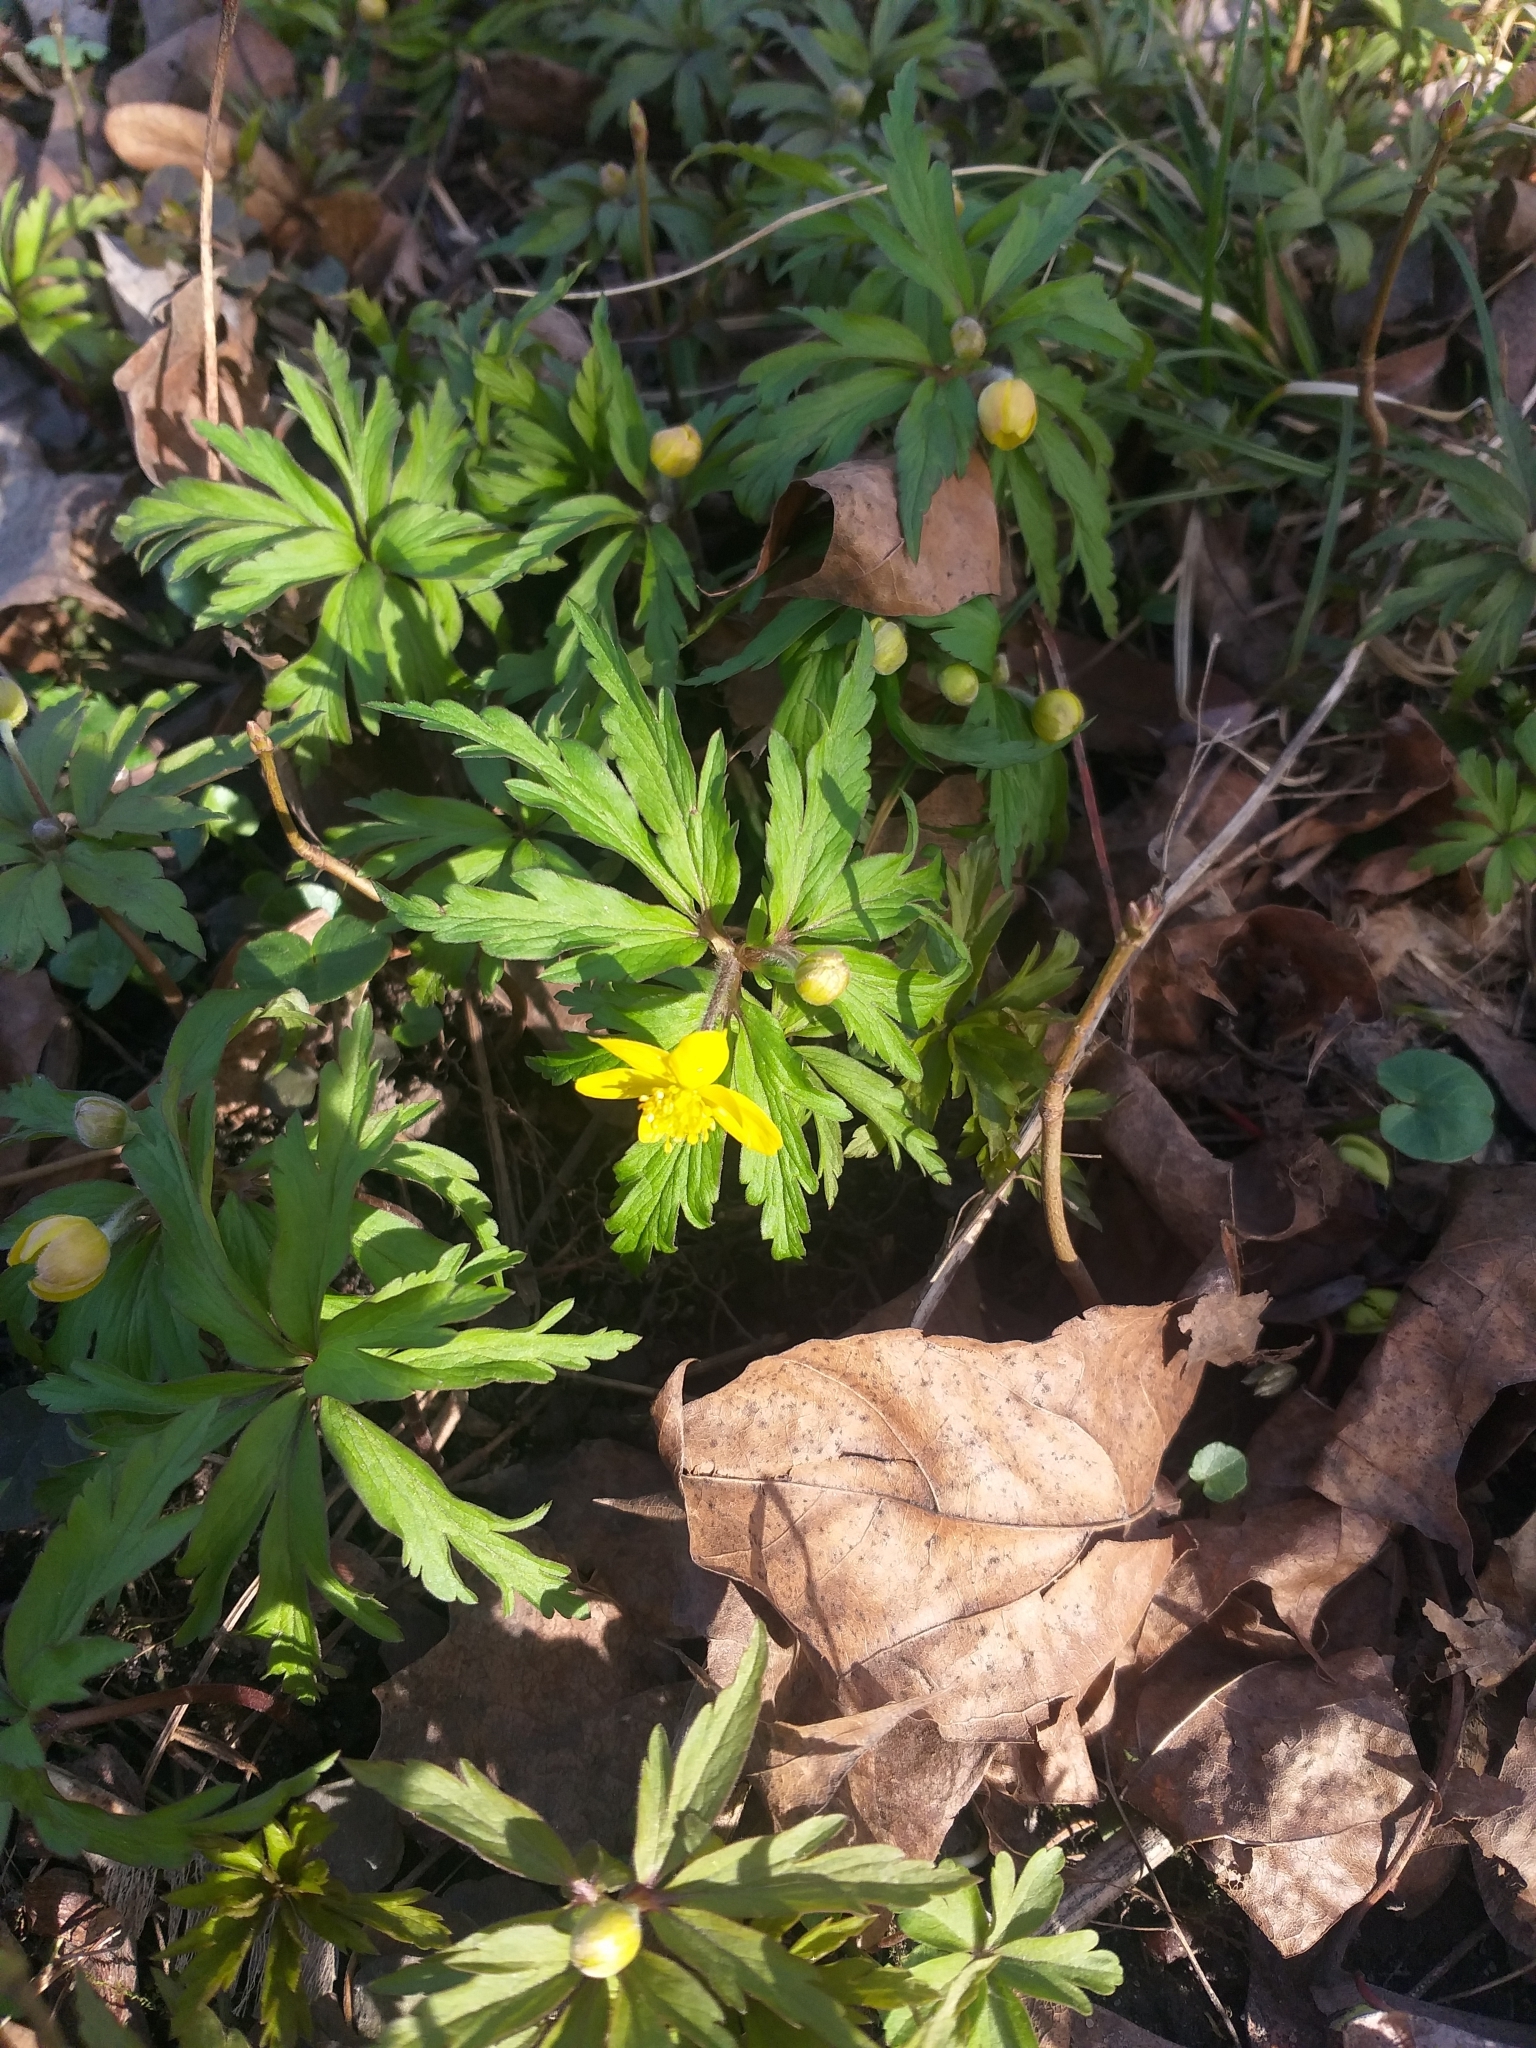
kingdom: Plantae
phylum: Tracheophyta
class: Magnoliopsida
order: Ranunculales
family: Ranunculaceae
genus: Anemone
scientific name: Anemone ranunculoides
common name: Yellow anemone
